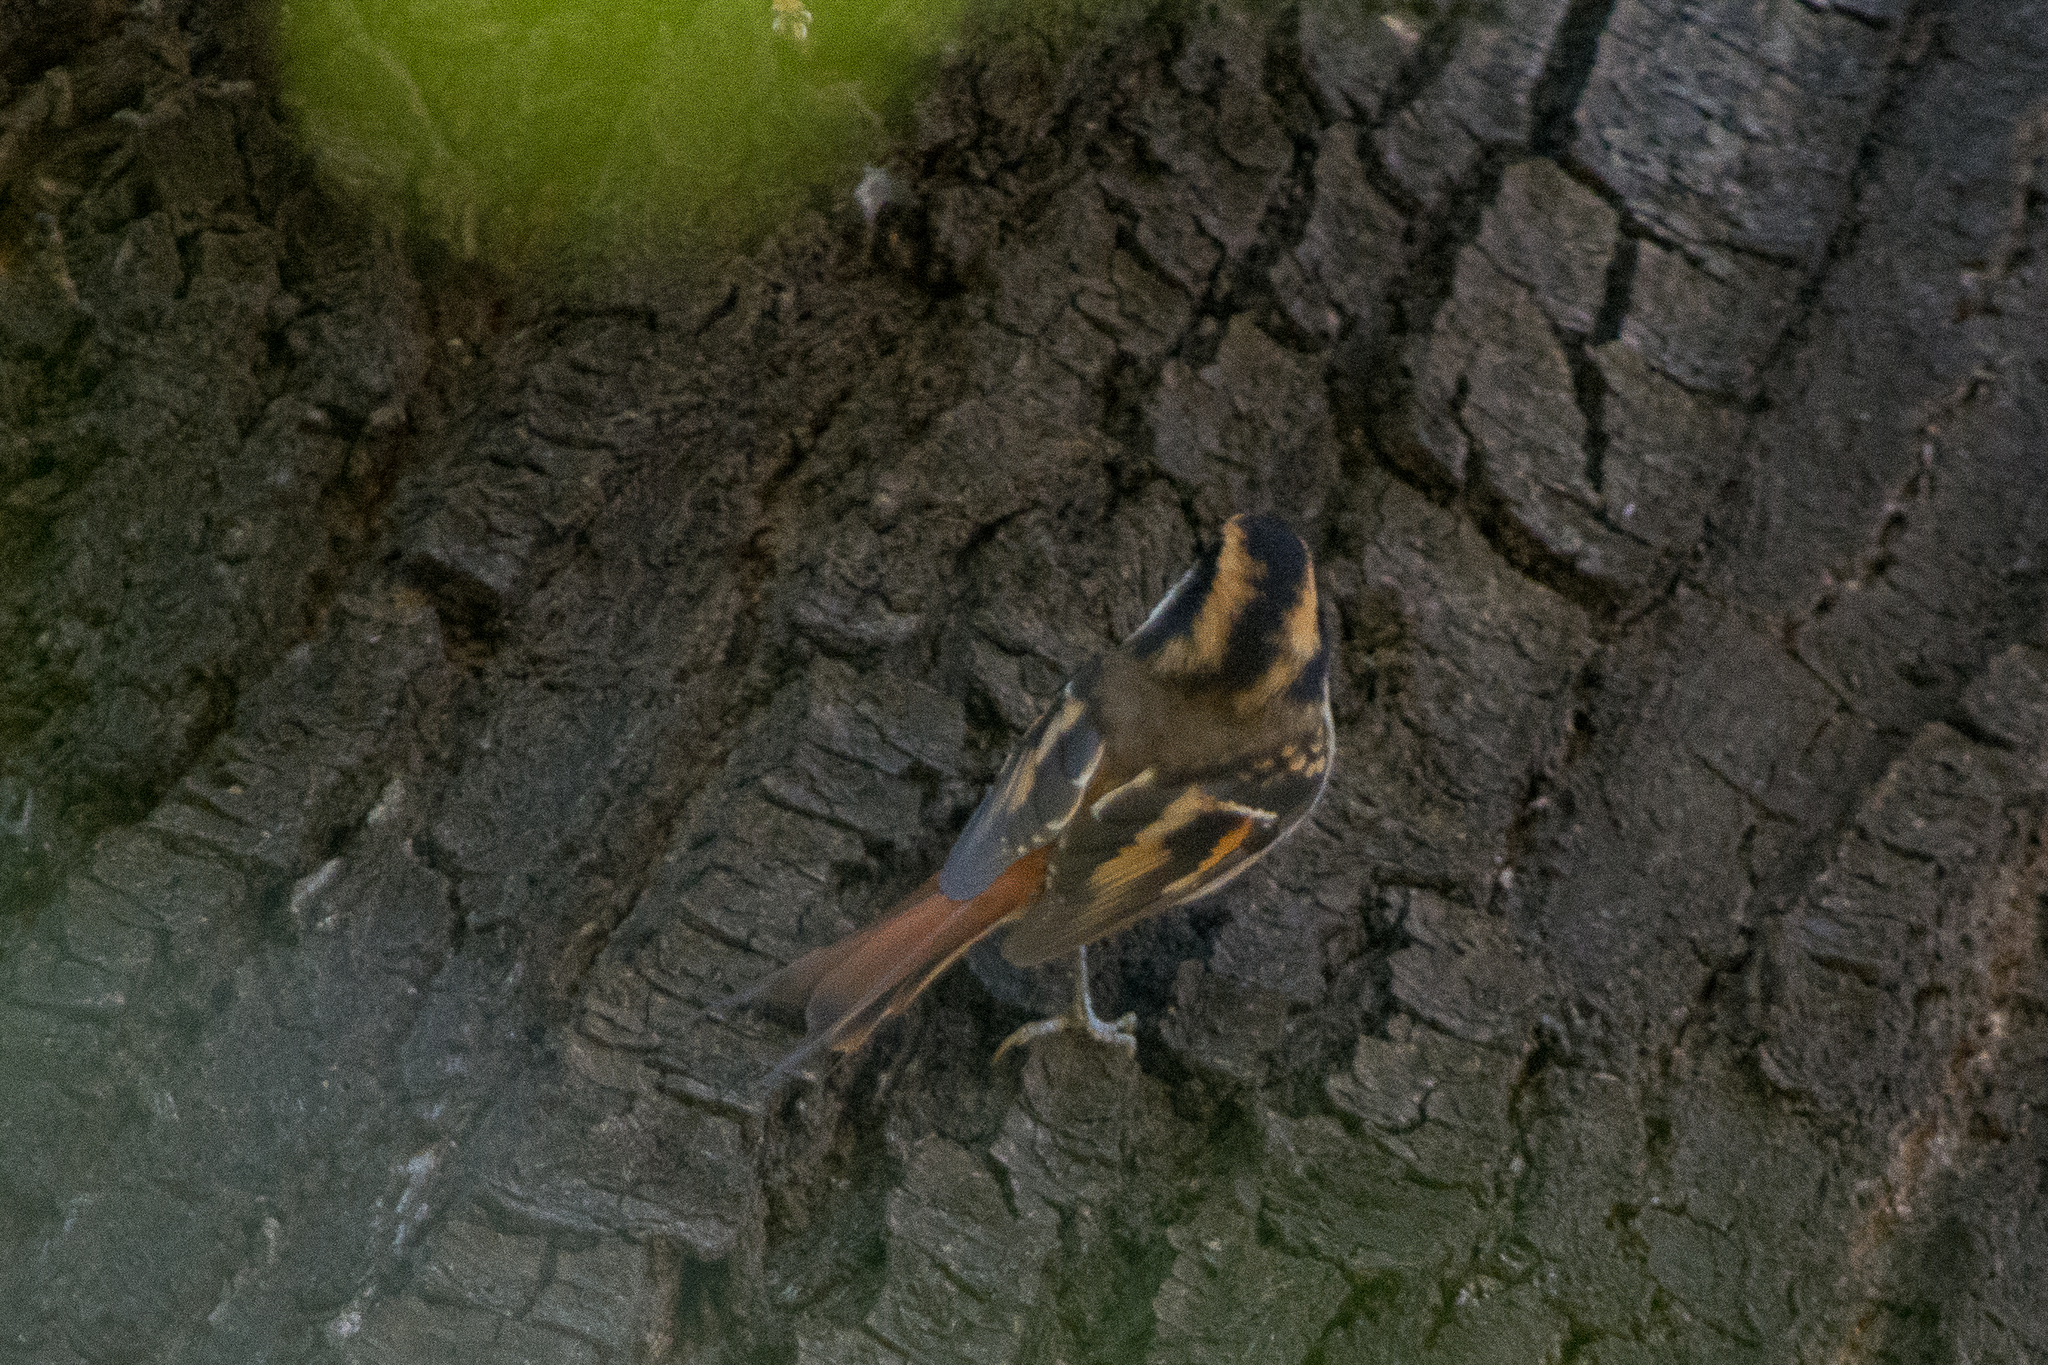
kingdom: Animalia
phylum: Chordata
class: Aves
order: Passeriformes
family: Furnariidae
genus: Aphrastura
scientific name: Aphrastura spinicauda
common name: Thorn-tailed rayadito
